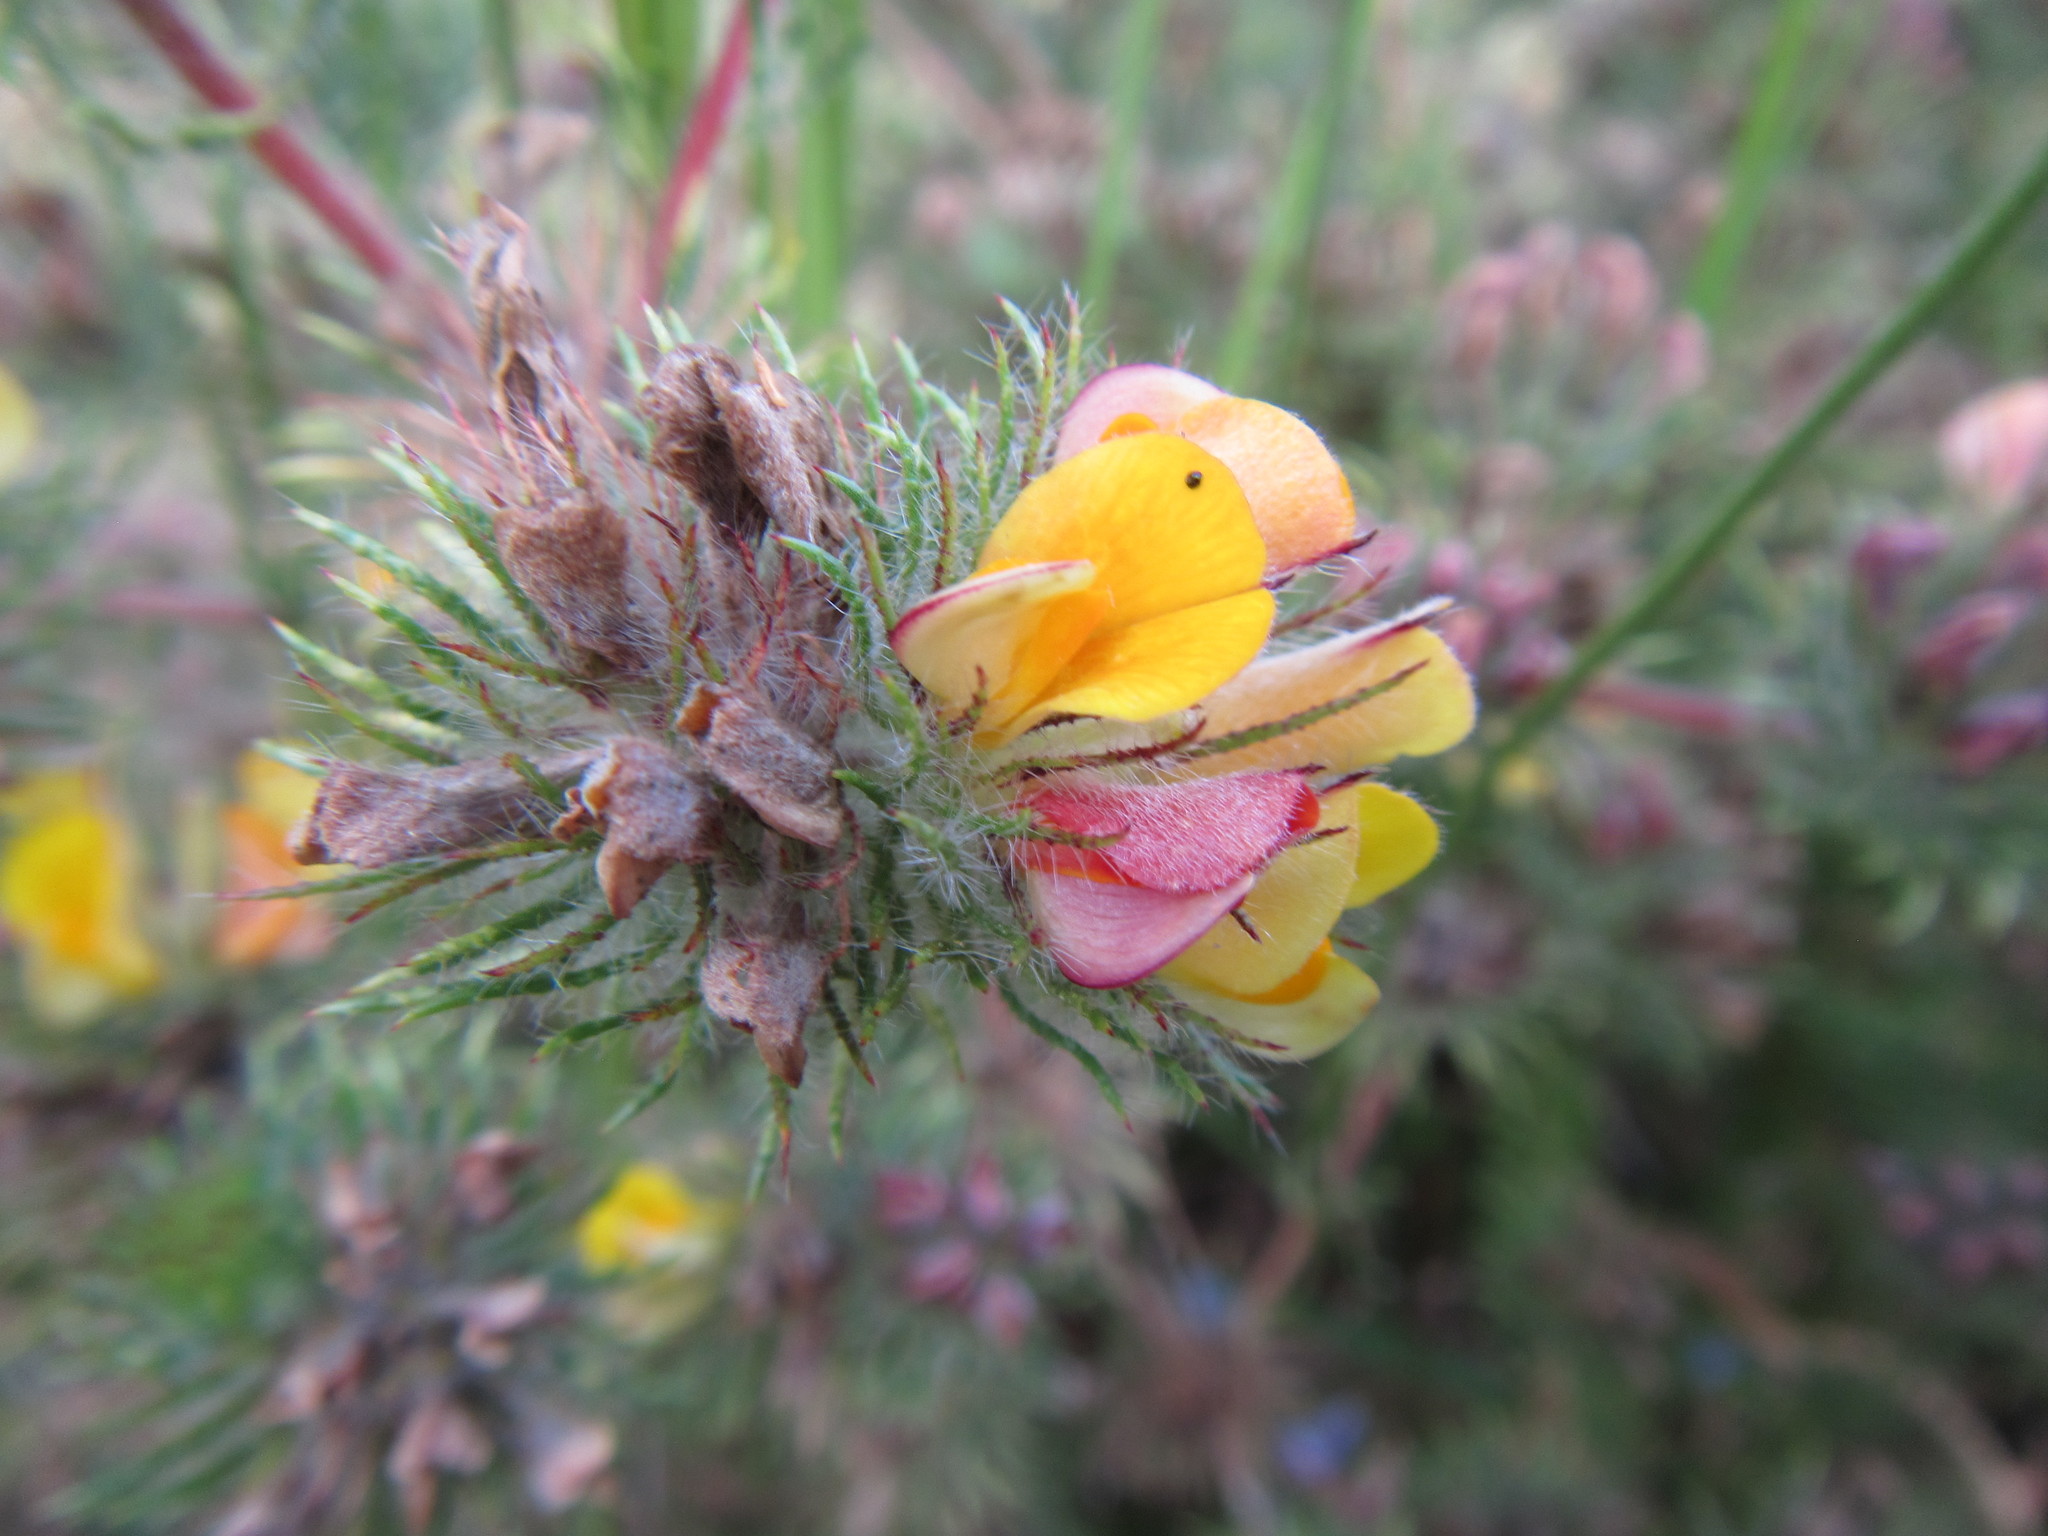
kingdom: Plantae
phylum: Tracheophyta
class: Magnoliopsida
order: Fabales
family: Fabaceae
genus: Aspalathus
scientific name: Aspalathus araneosa
